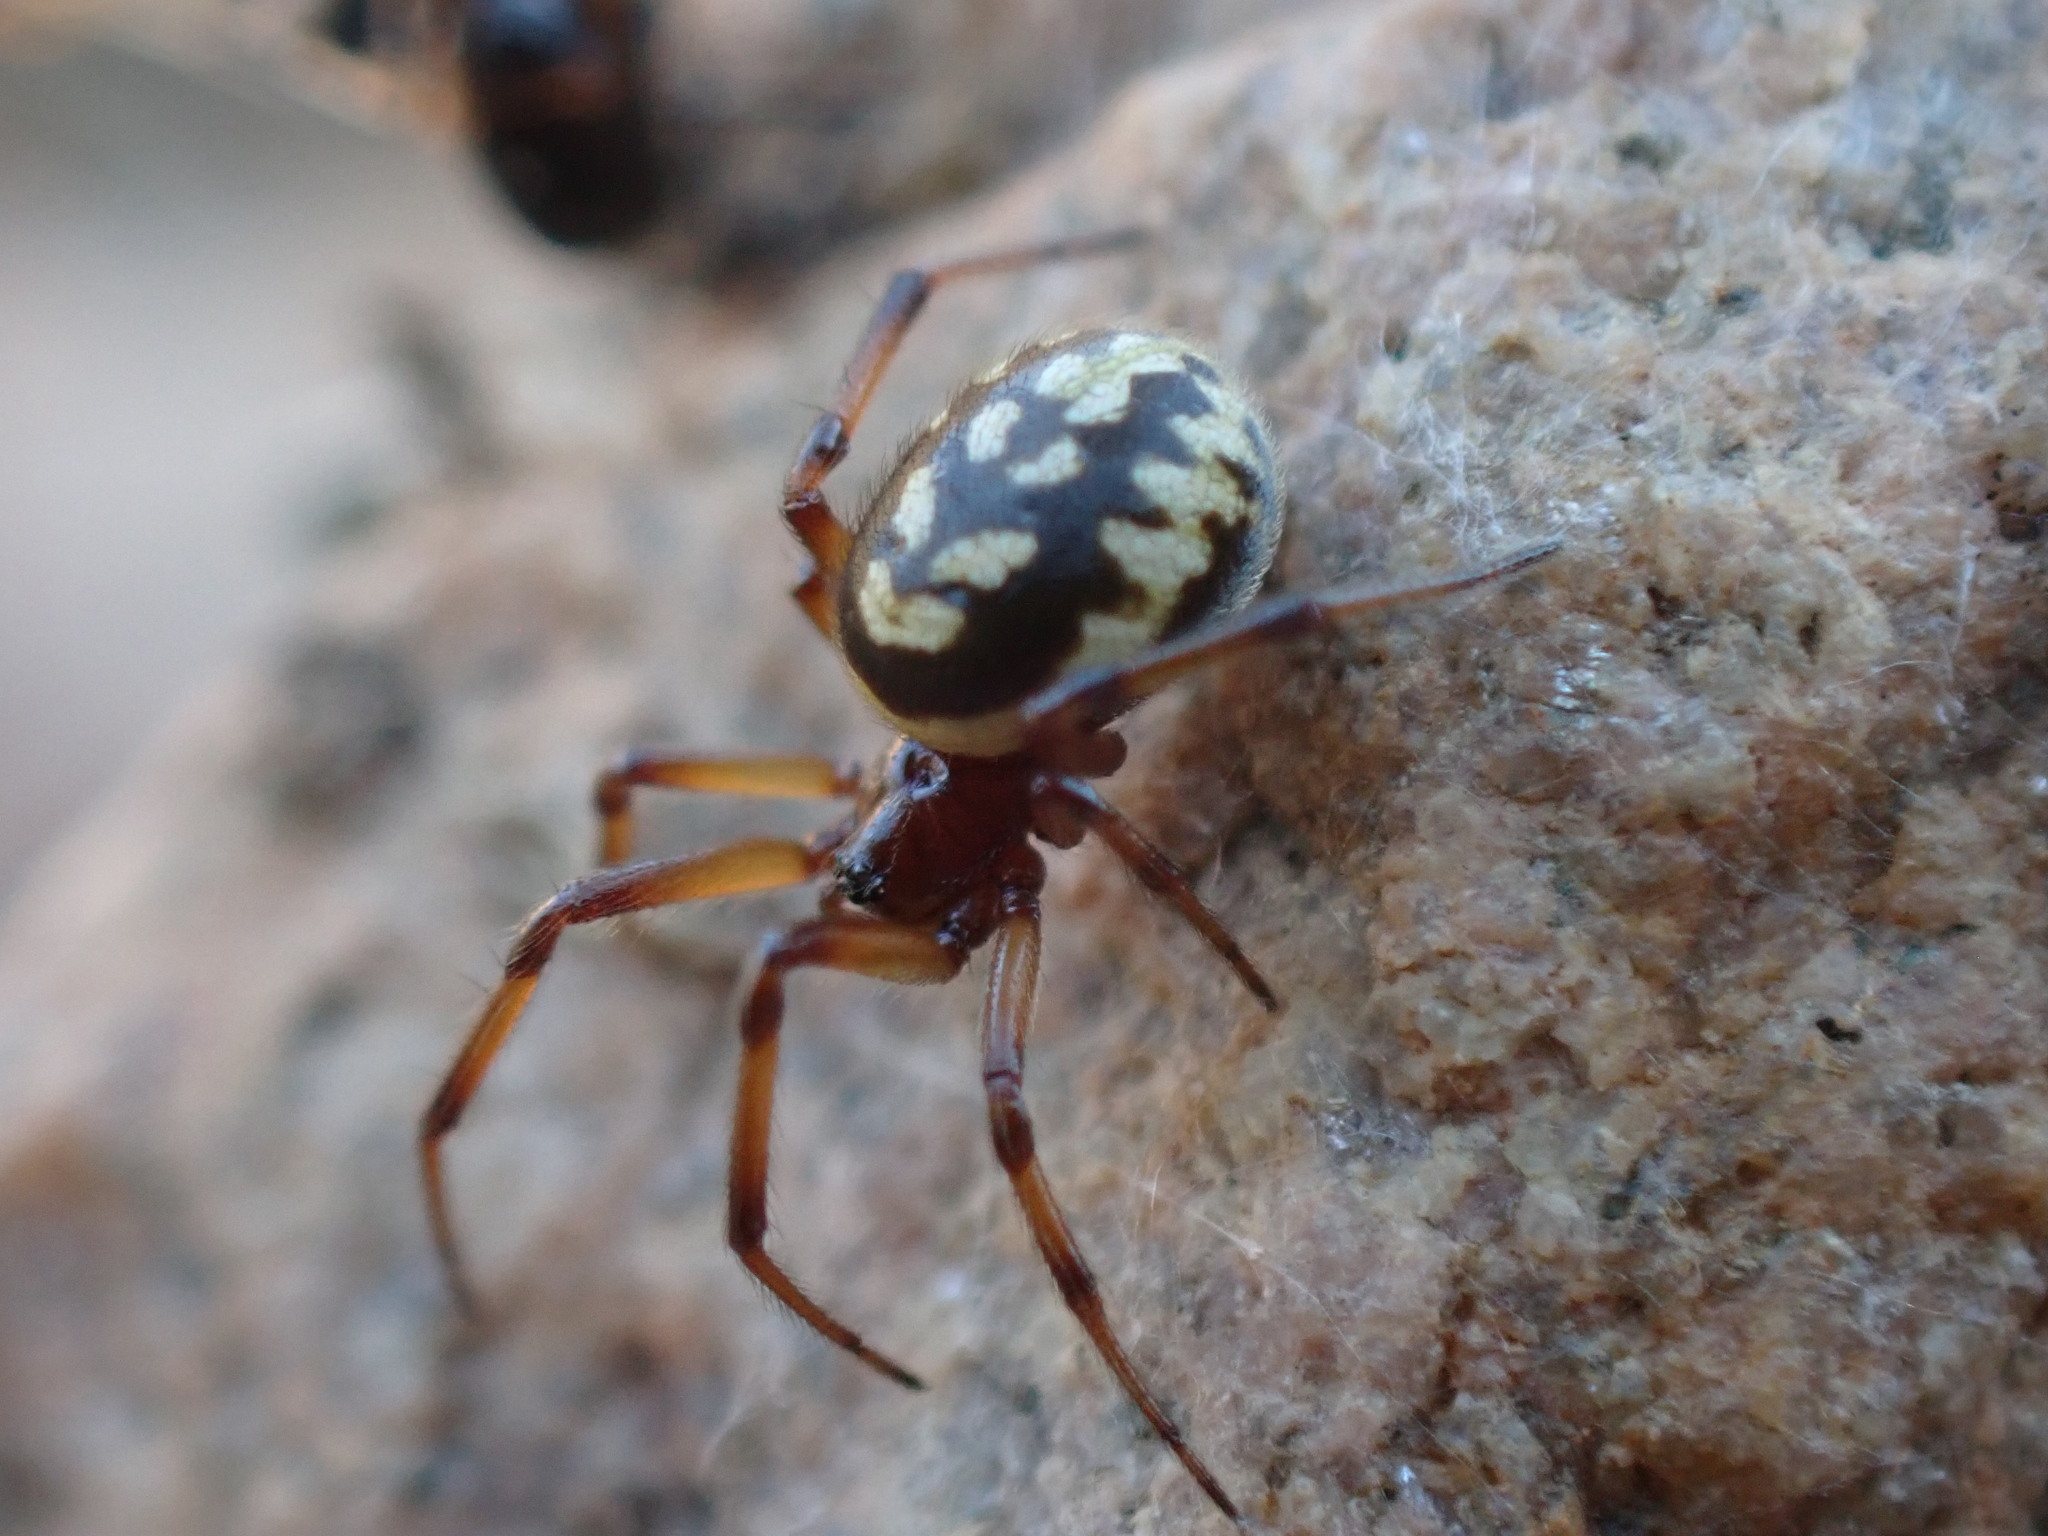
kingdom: Animalia
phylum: Arthropoda
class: Arachnida
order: Araneae
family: Theridiidae
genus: Steatoda
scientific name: Steatoda
